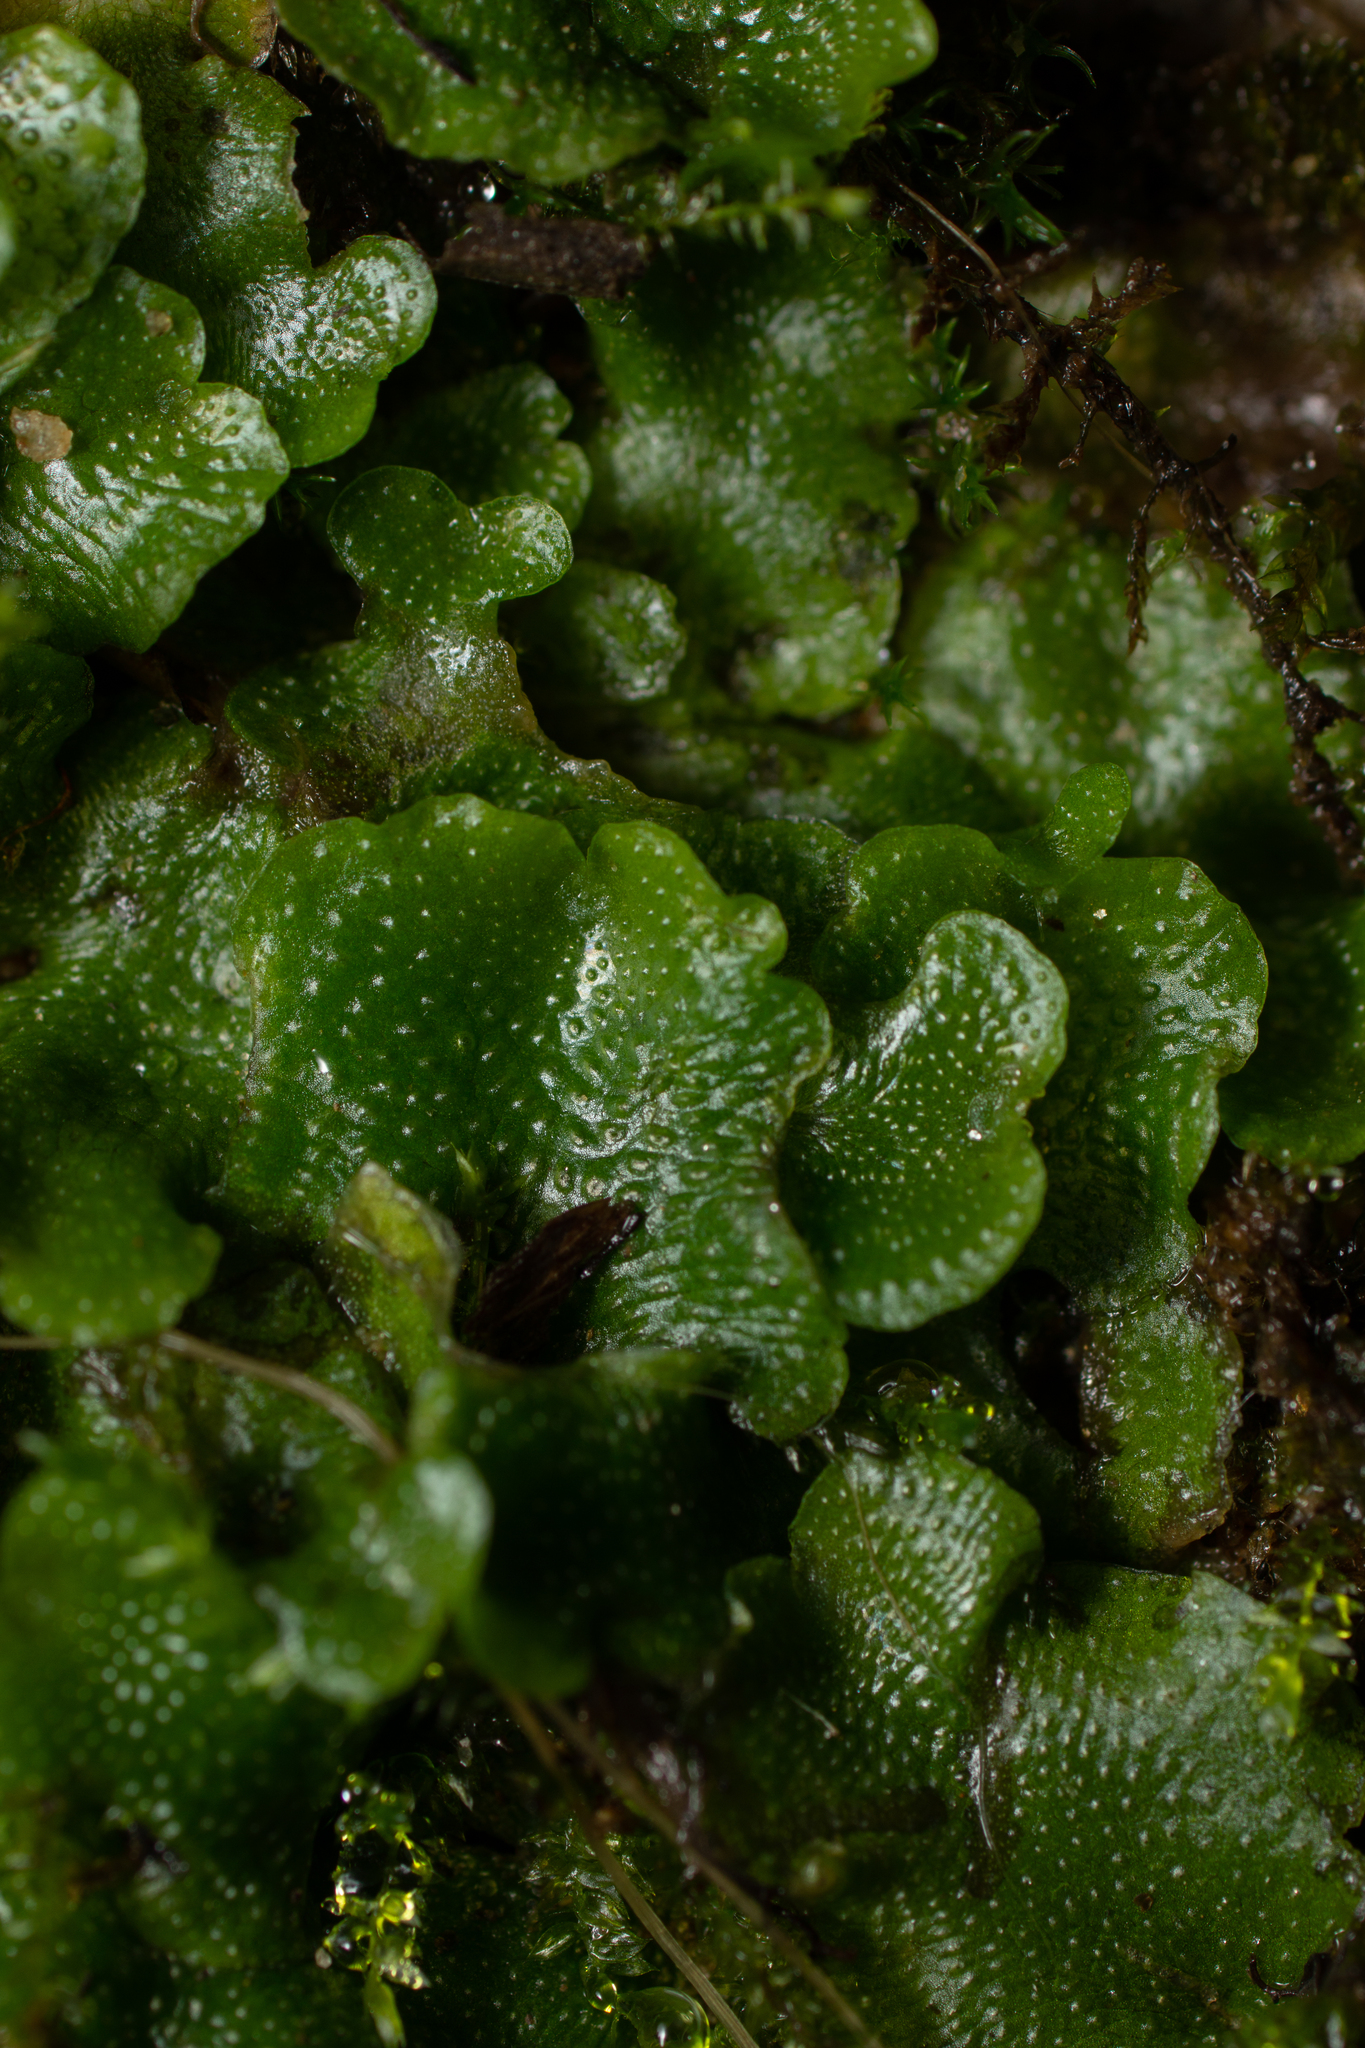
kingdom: Plantae
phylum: Marchantiophyta
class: Marchantiopsida
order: Lunulariales
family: Lunulariaceae
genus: Lunularia
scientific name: Lunularia cruciata
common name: Crescent-cup liverwort
